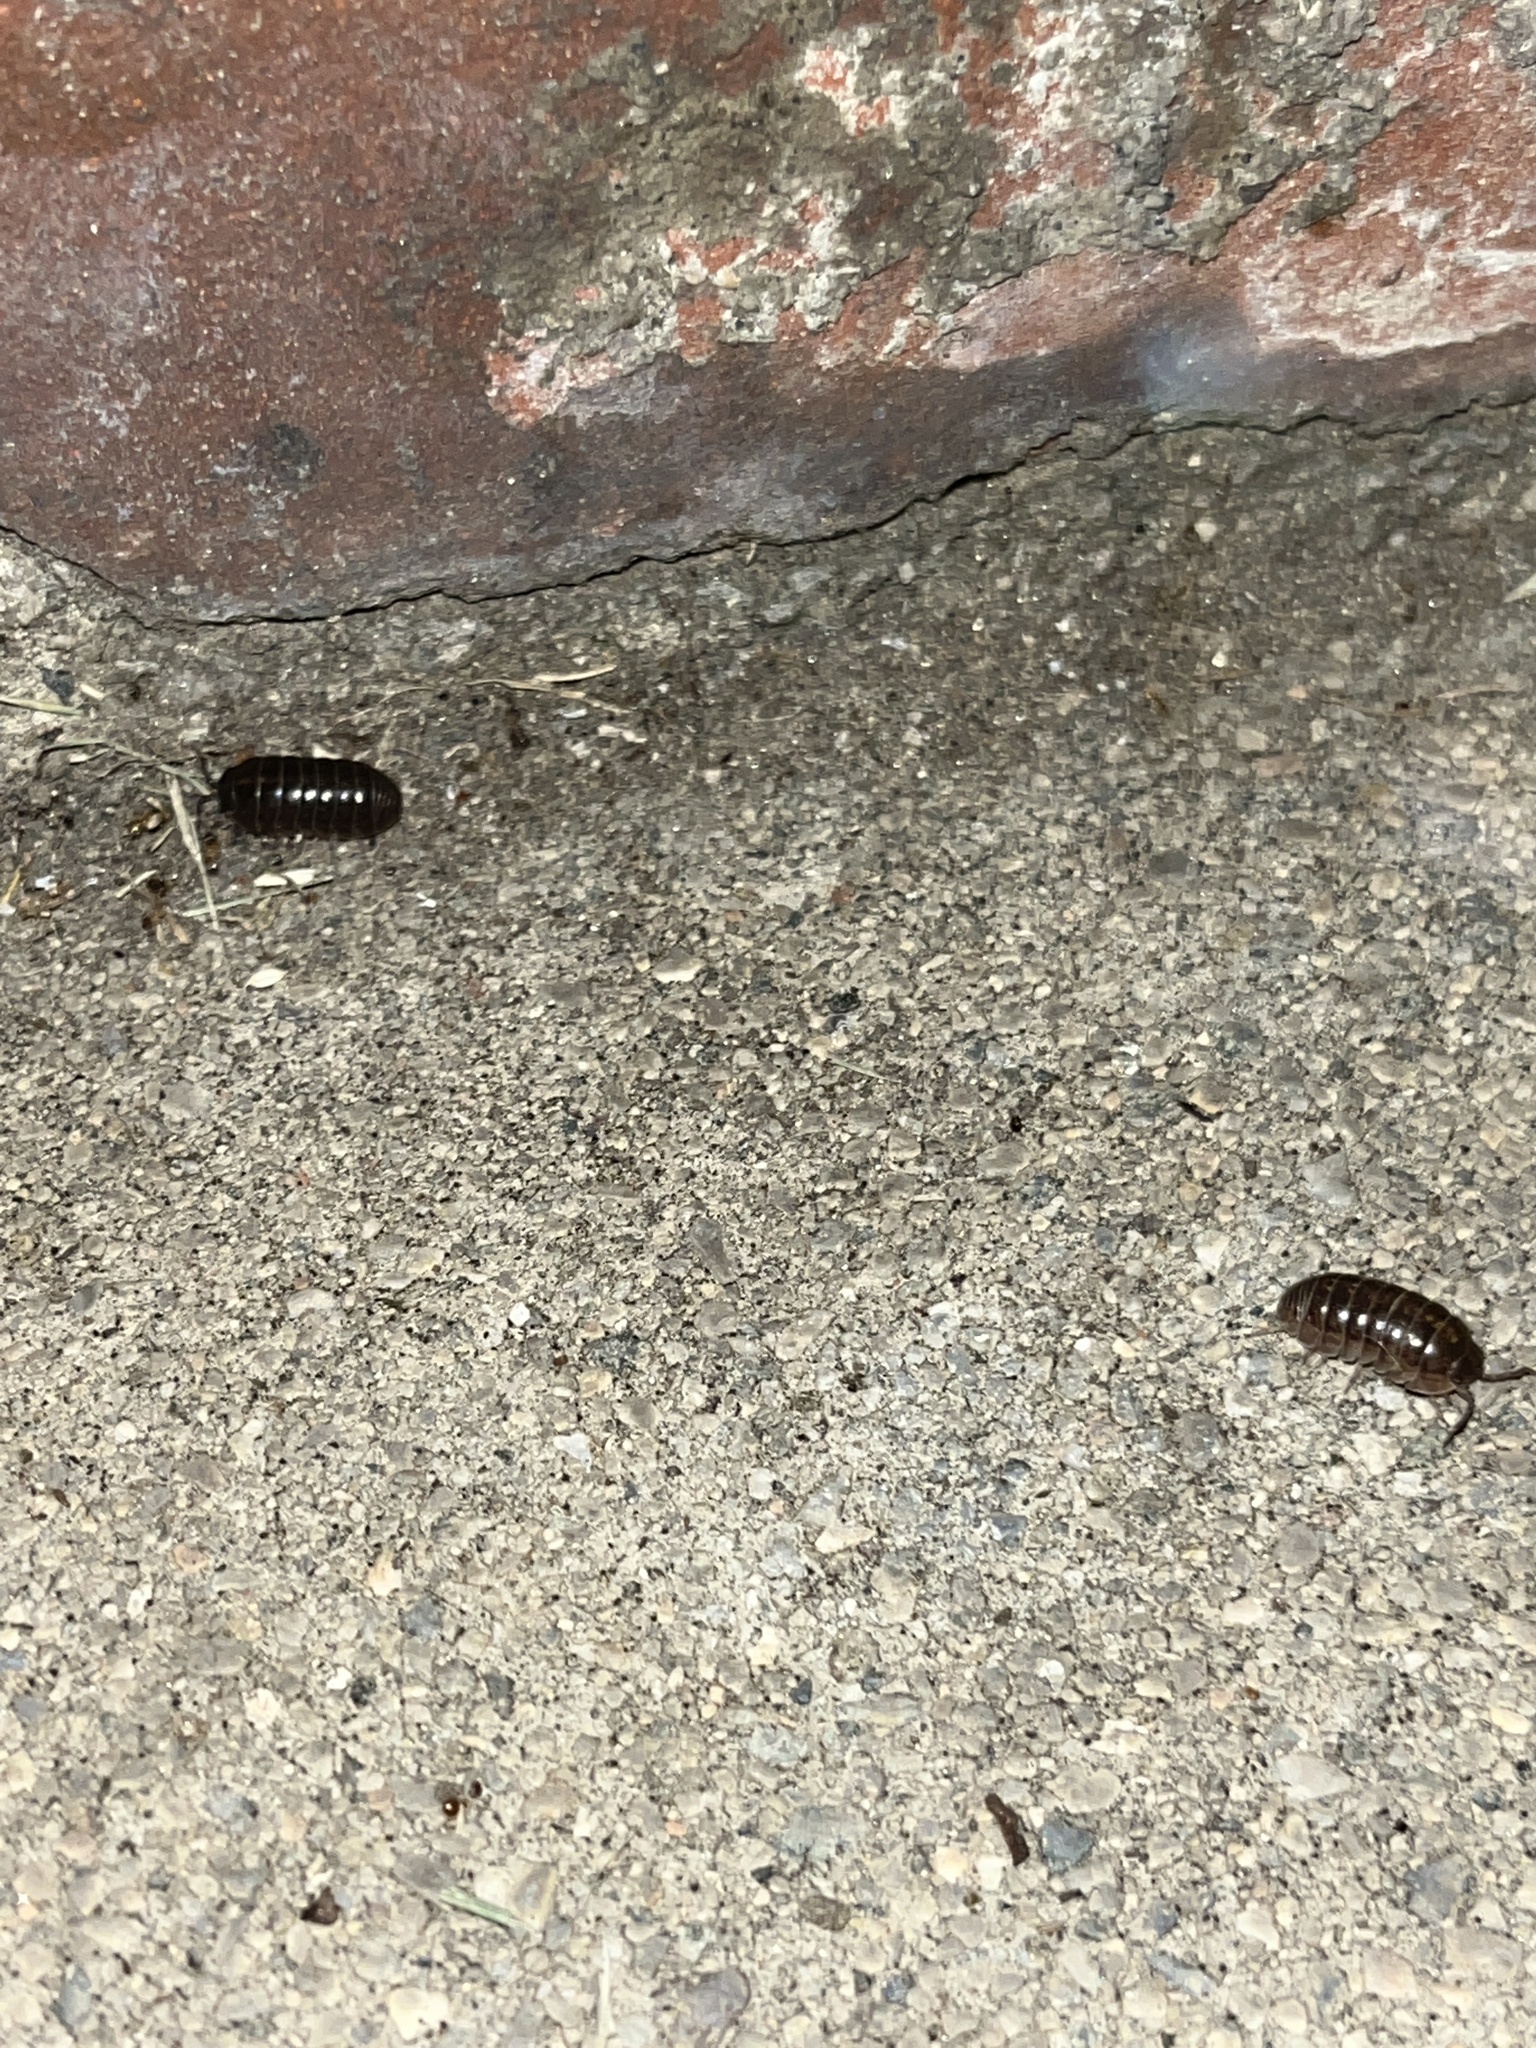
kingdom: Animalia
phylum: Arthropoda
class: Malacostraca
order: Isopoda
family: Armadillidiidae
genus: Armadillidium
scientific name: Armadillidium vulgare
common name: Common pill woodlouse
